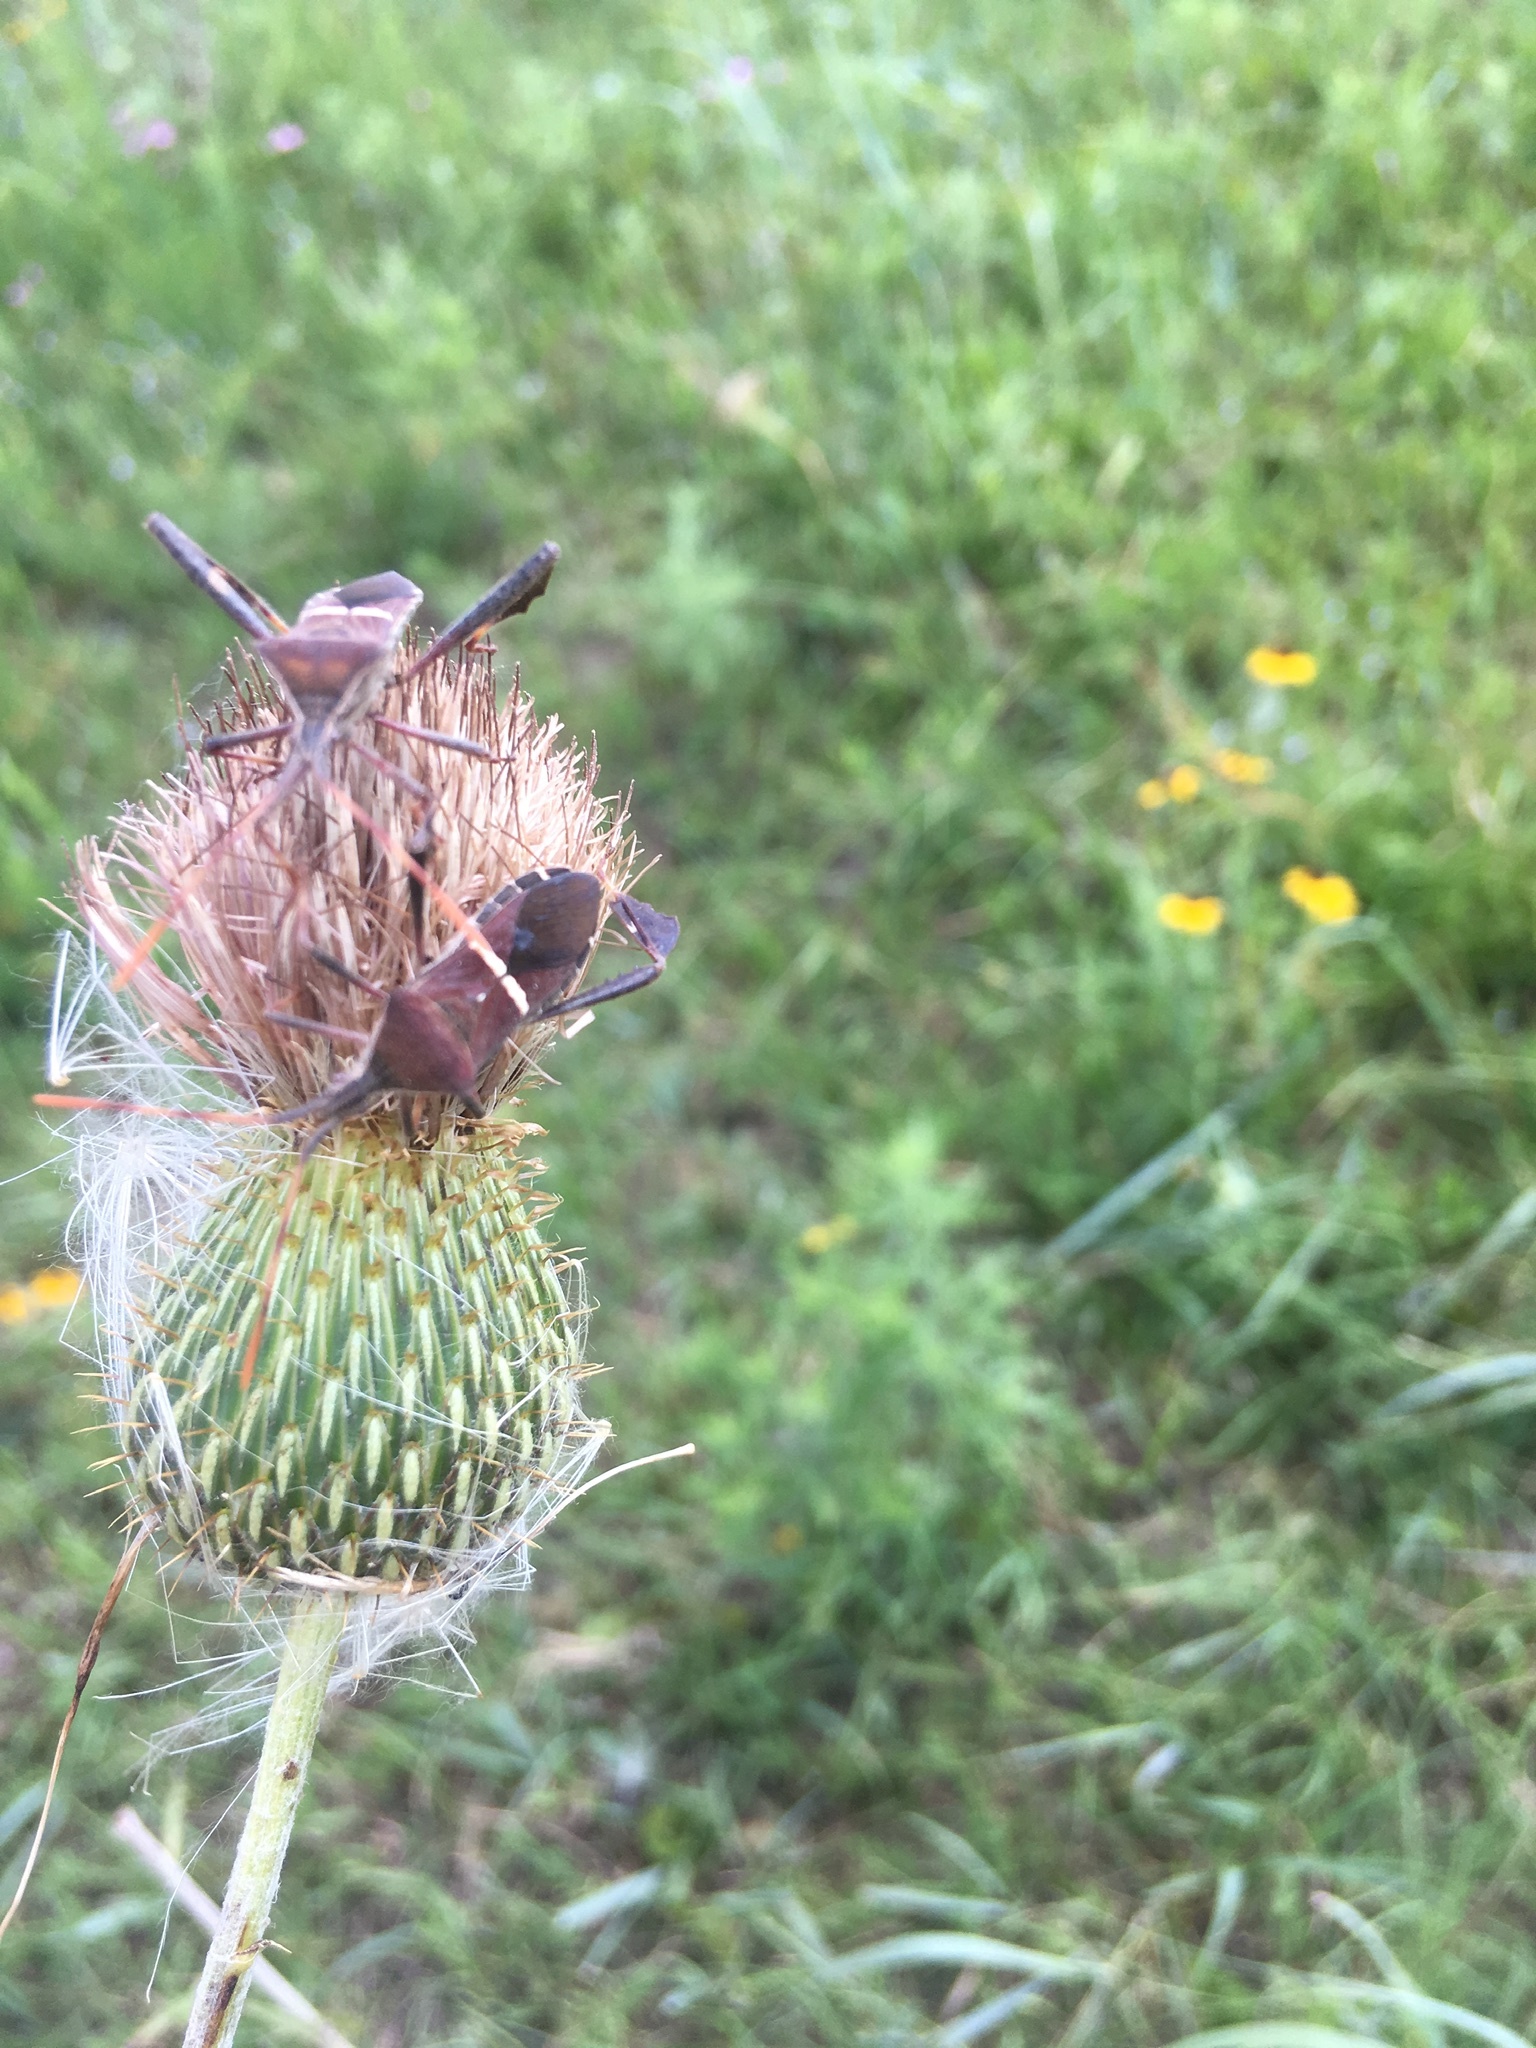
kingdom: Animalia
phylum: Arthropoda
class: Insecta
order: Hemiptera
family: Coreidae
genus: Leptoglossus
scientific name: Leptoglossus phyllopus
